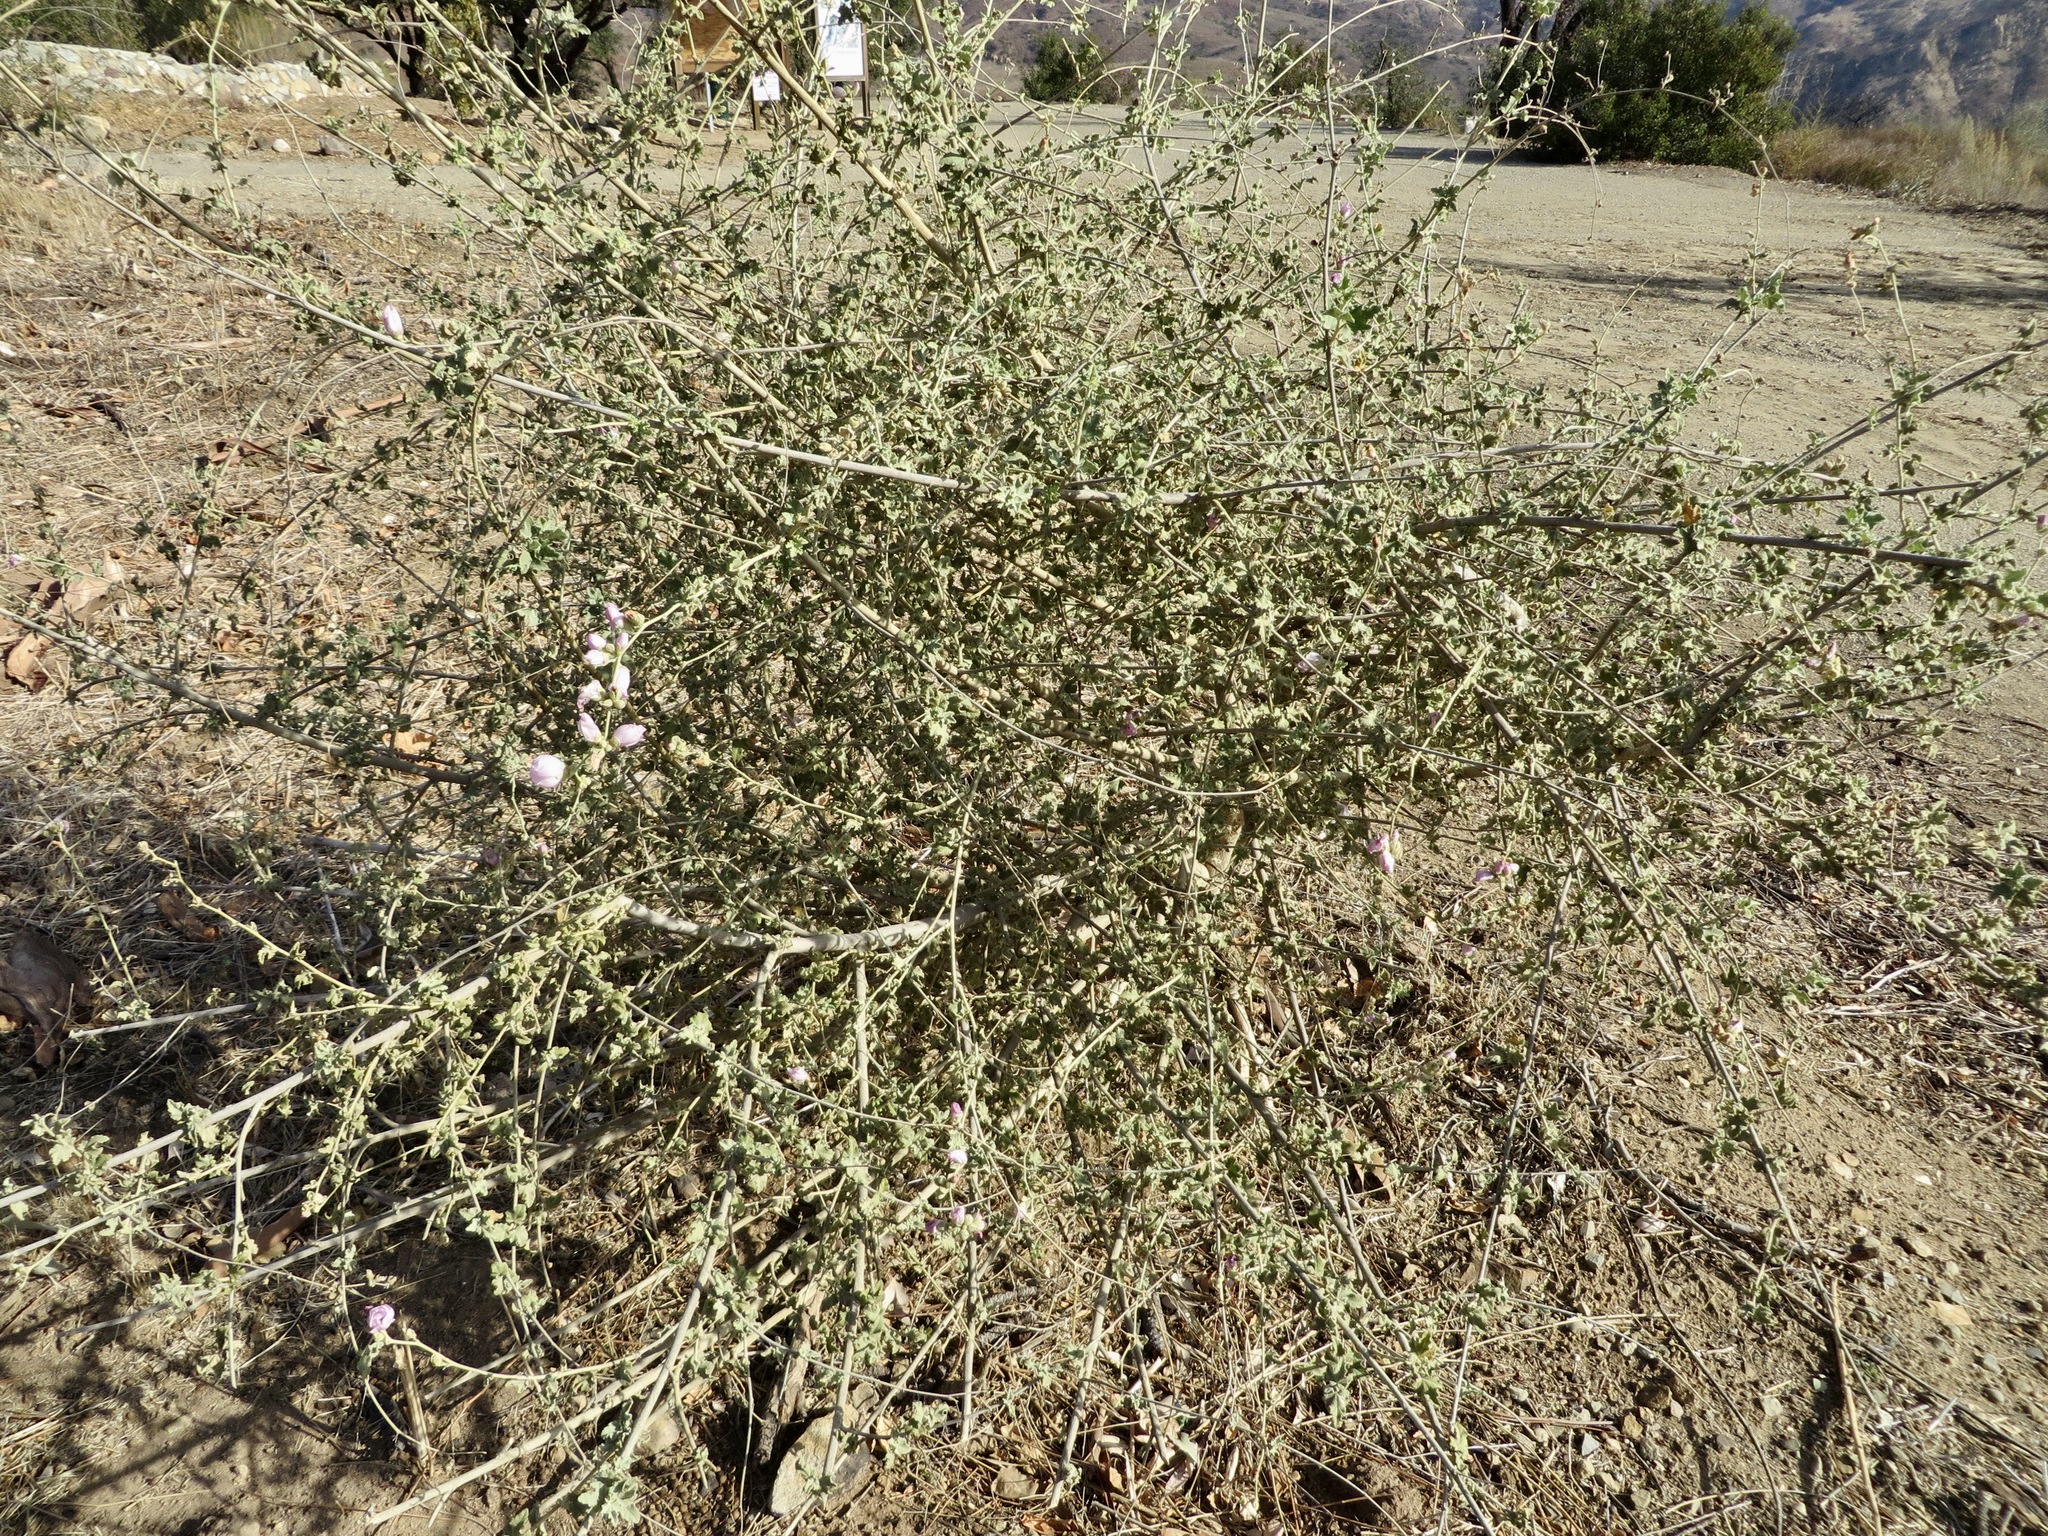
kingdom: Plantae
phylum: Tracheophyta
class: Magnoliopsida
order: Malvales
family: Malvaceae
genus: Malacothamnus
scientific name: Malacothamnus fasciculatus
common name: Sant cruz island bush-mallow
